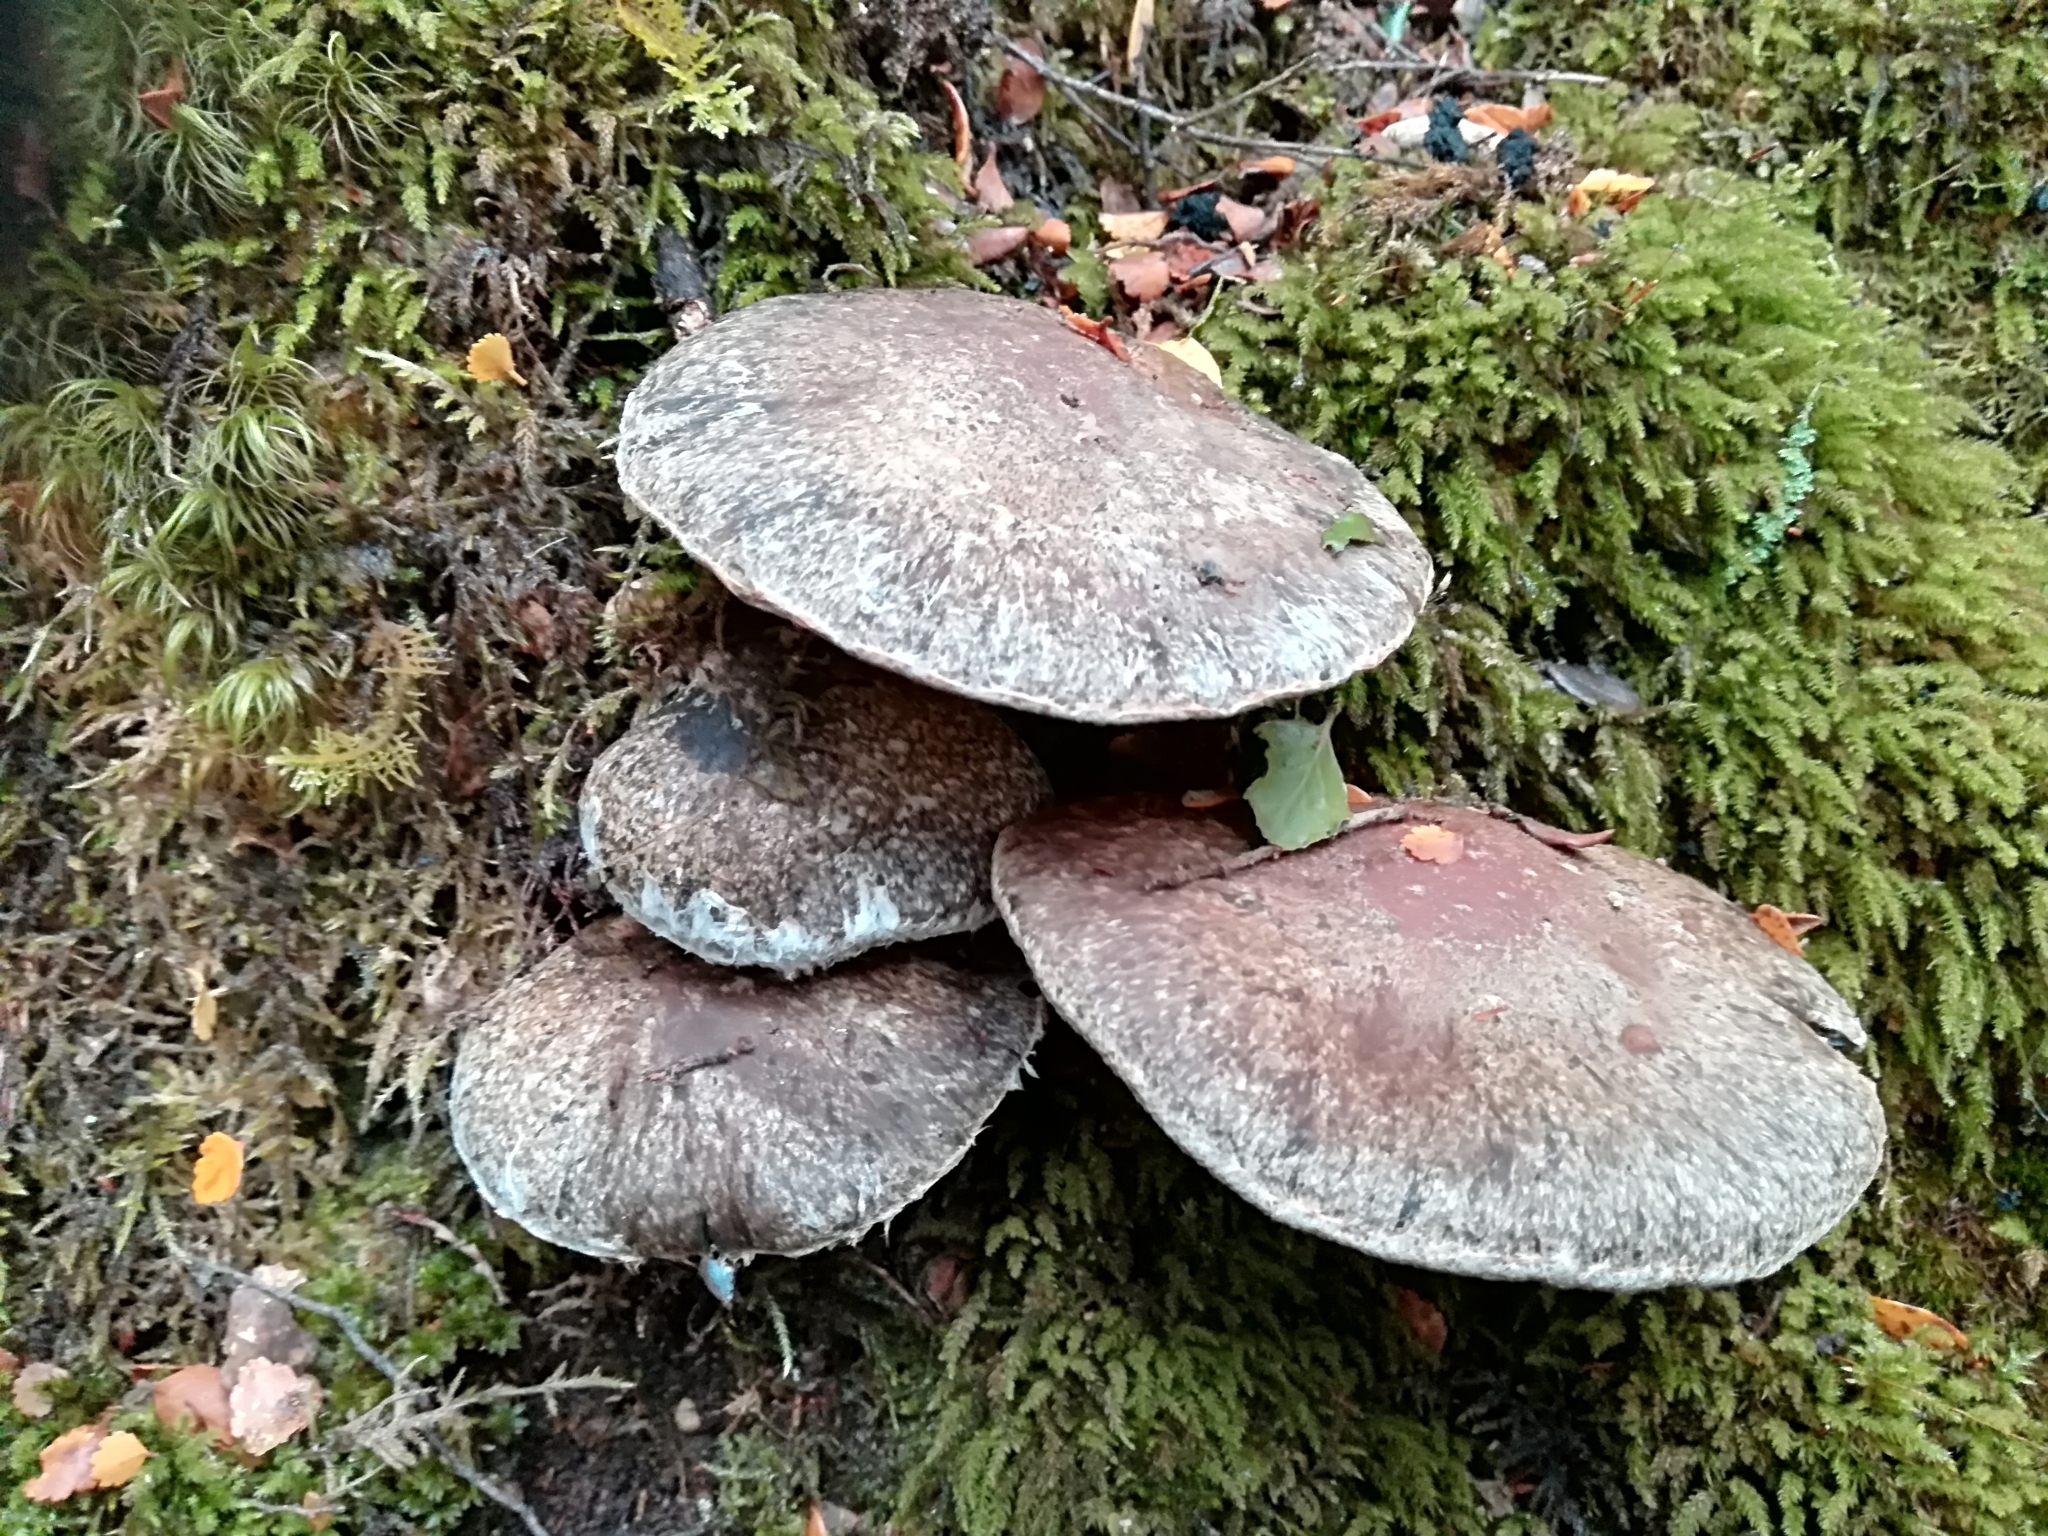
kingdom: Fungi
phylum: Basidiomycota
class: Agaricomycetes
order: Agaricales
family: Cortinariaceae
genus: Thaxterogaster
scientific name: Thaxterogaster austrocyanites
